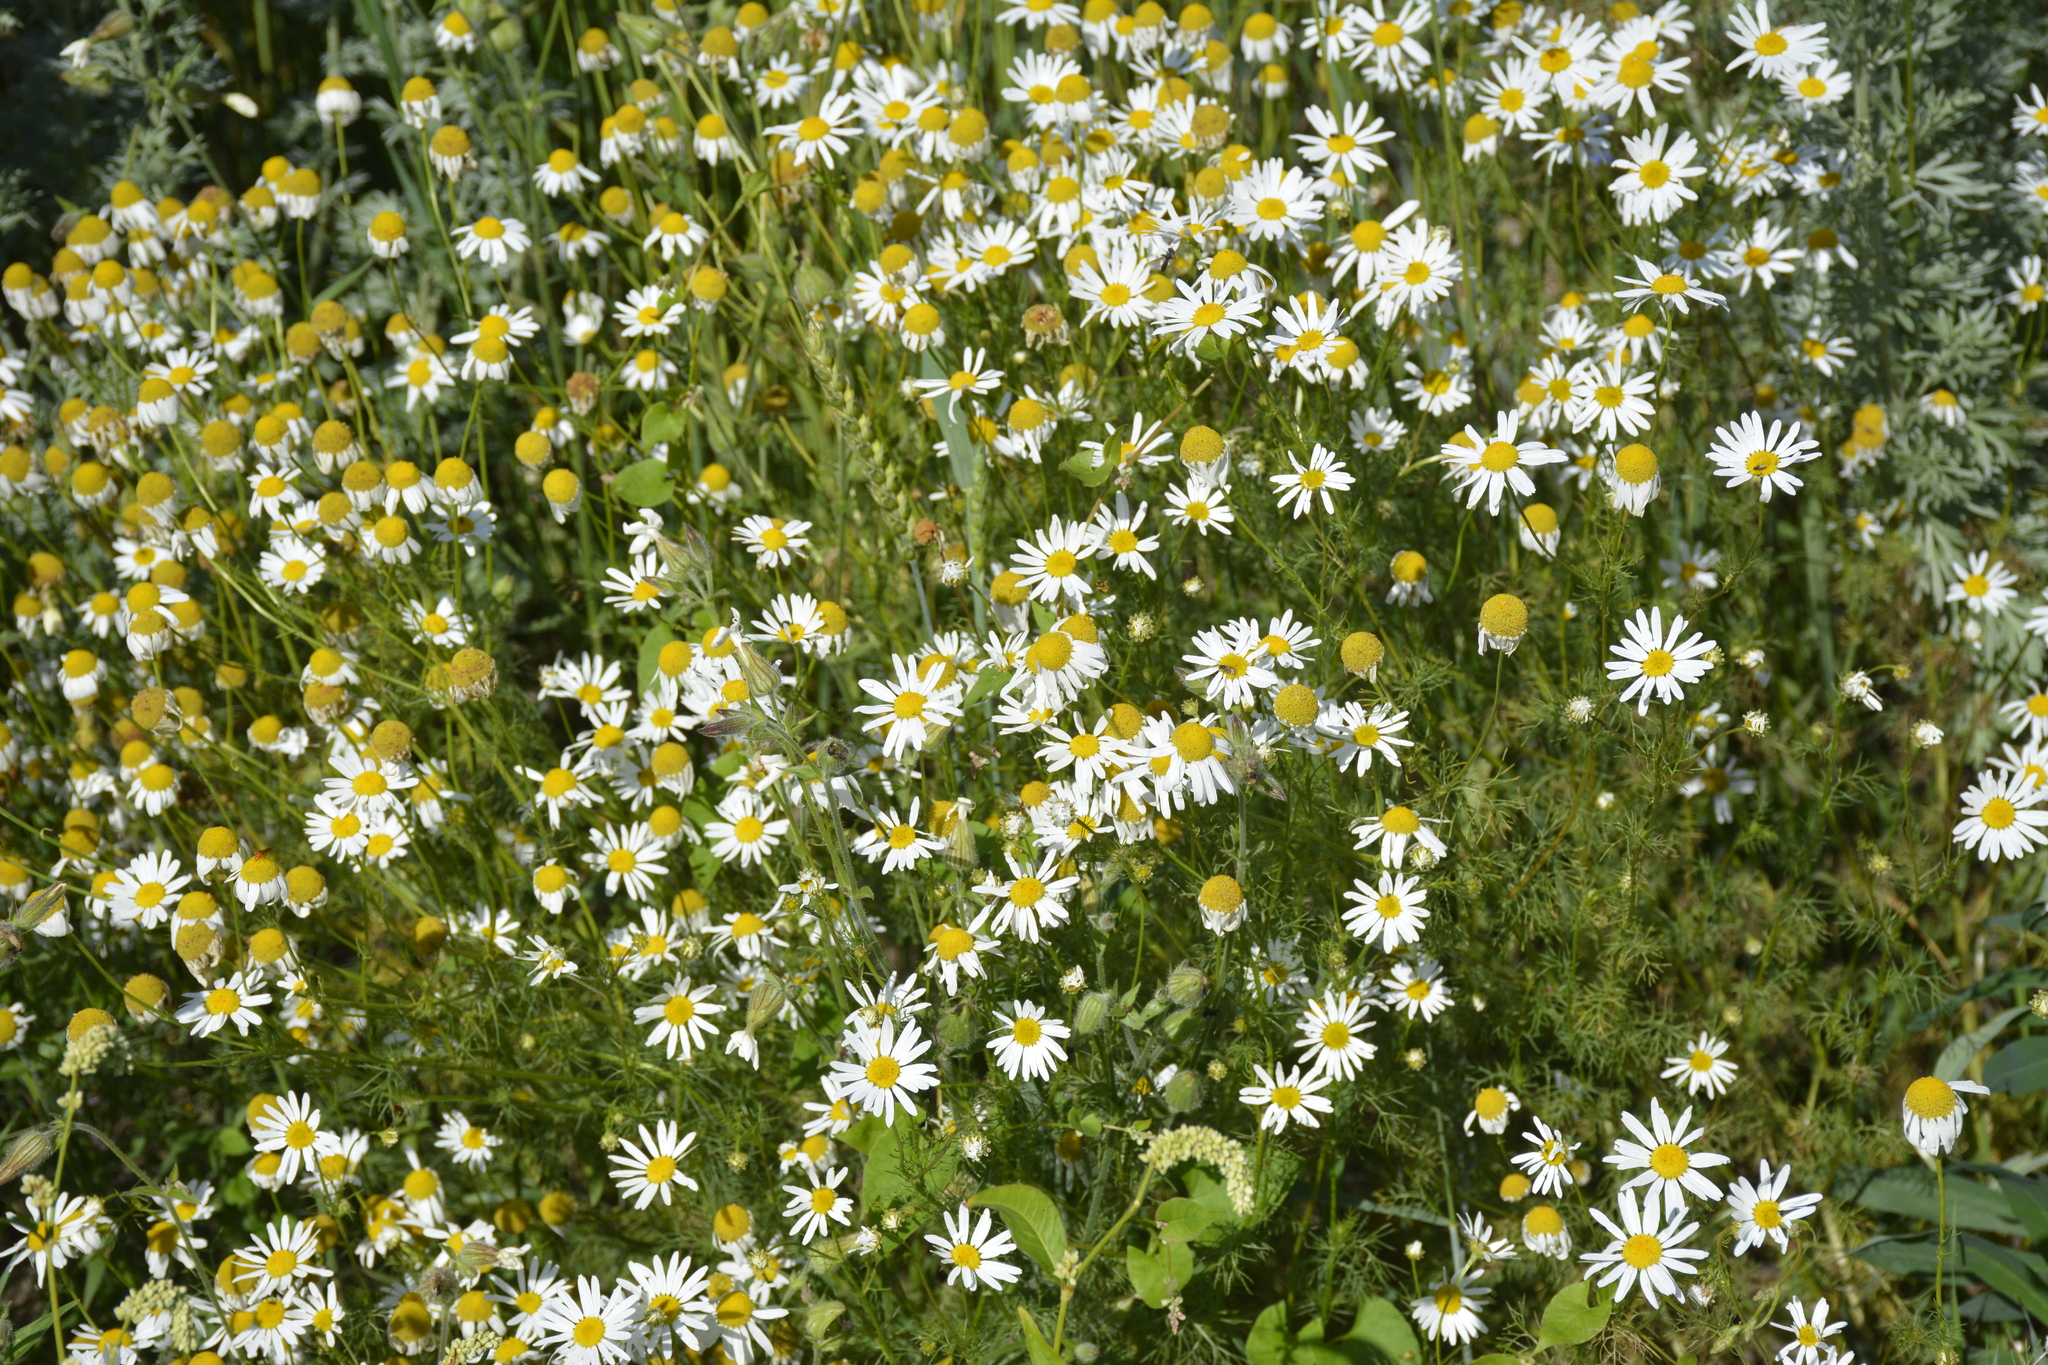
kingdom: Plantae
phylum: Tracheophyta
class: Magnoliopsida
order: Asterales
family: Asteraceae
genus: Tripleurospermum
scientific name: Tripleurospermum inodorum
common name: Scentless mayweed
